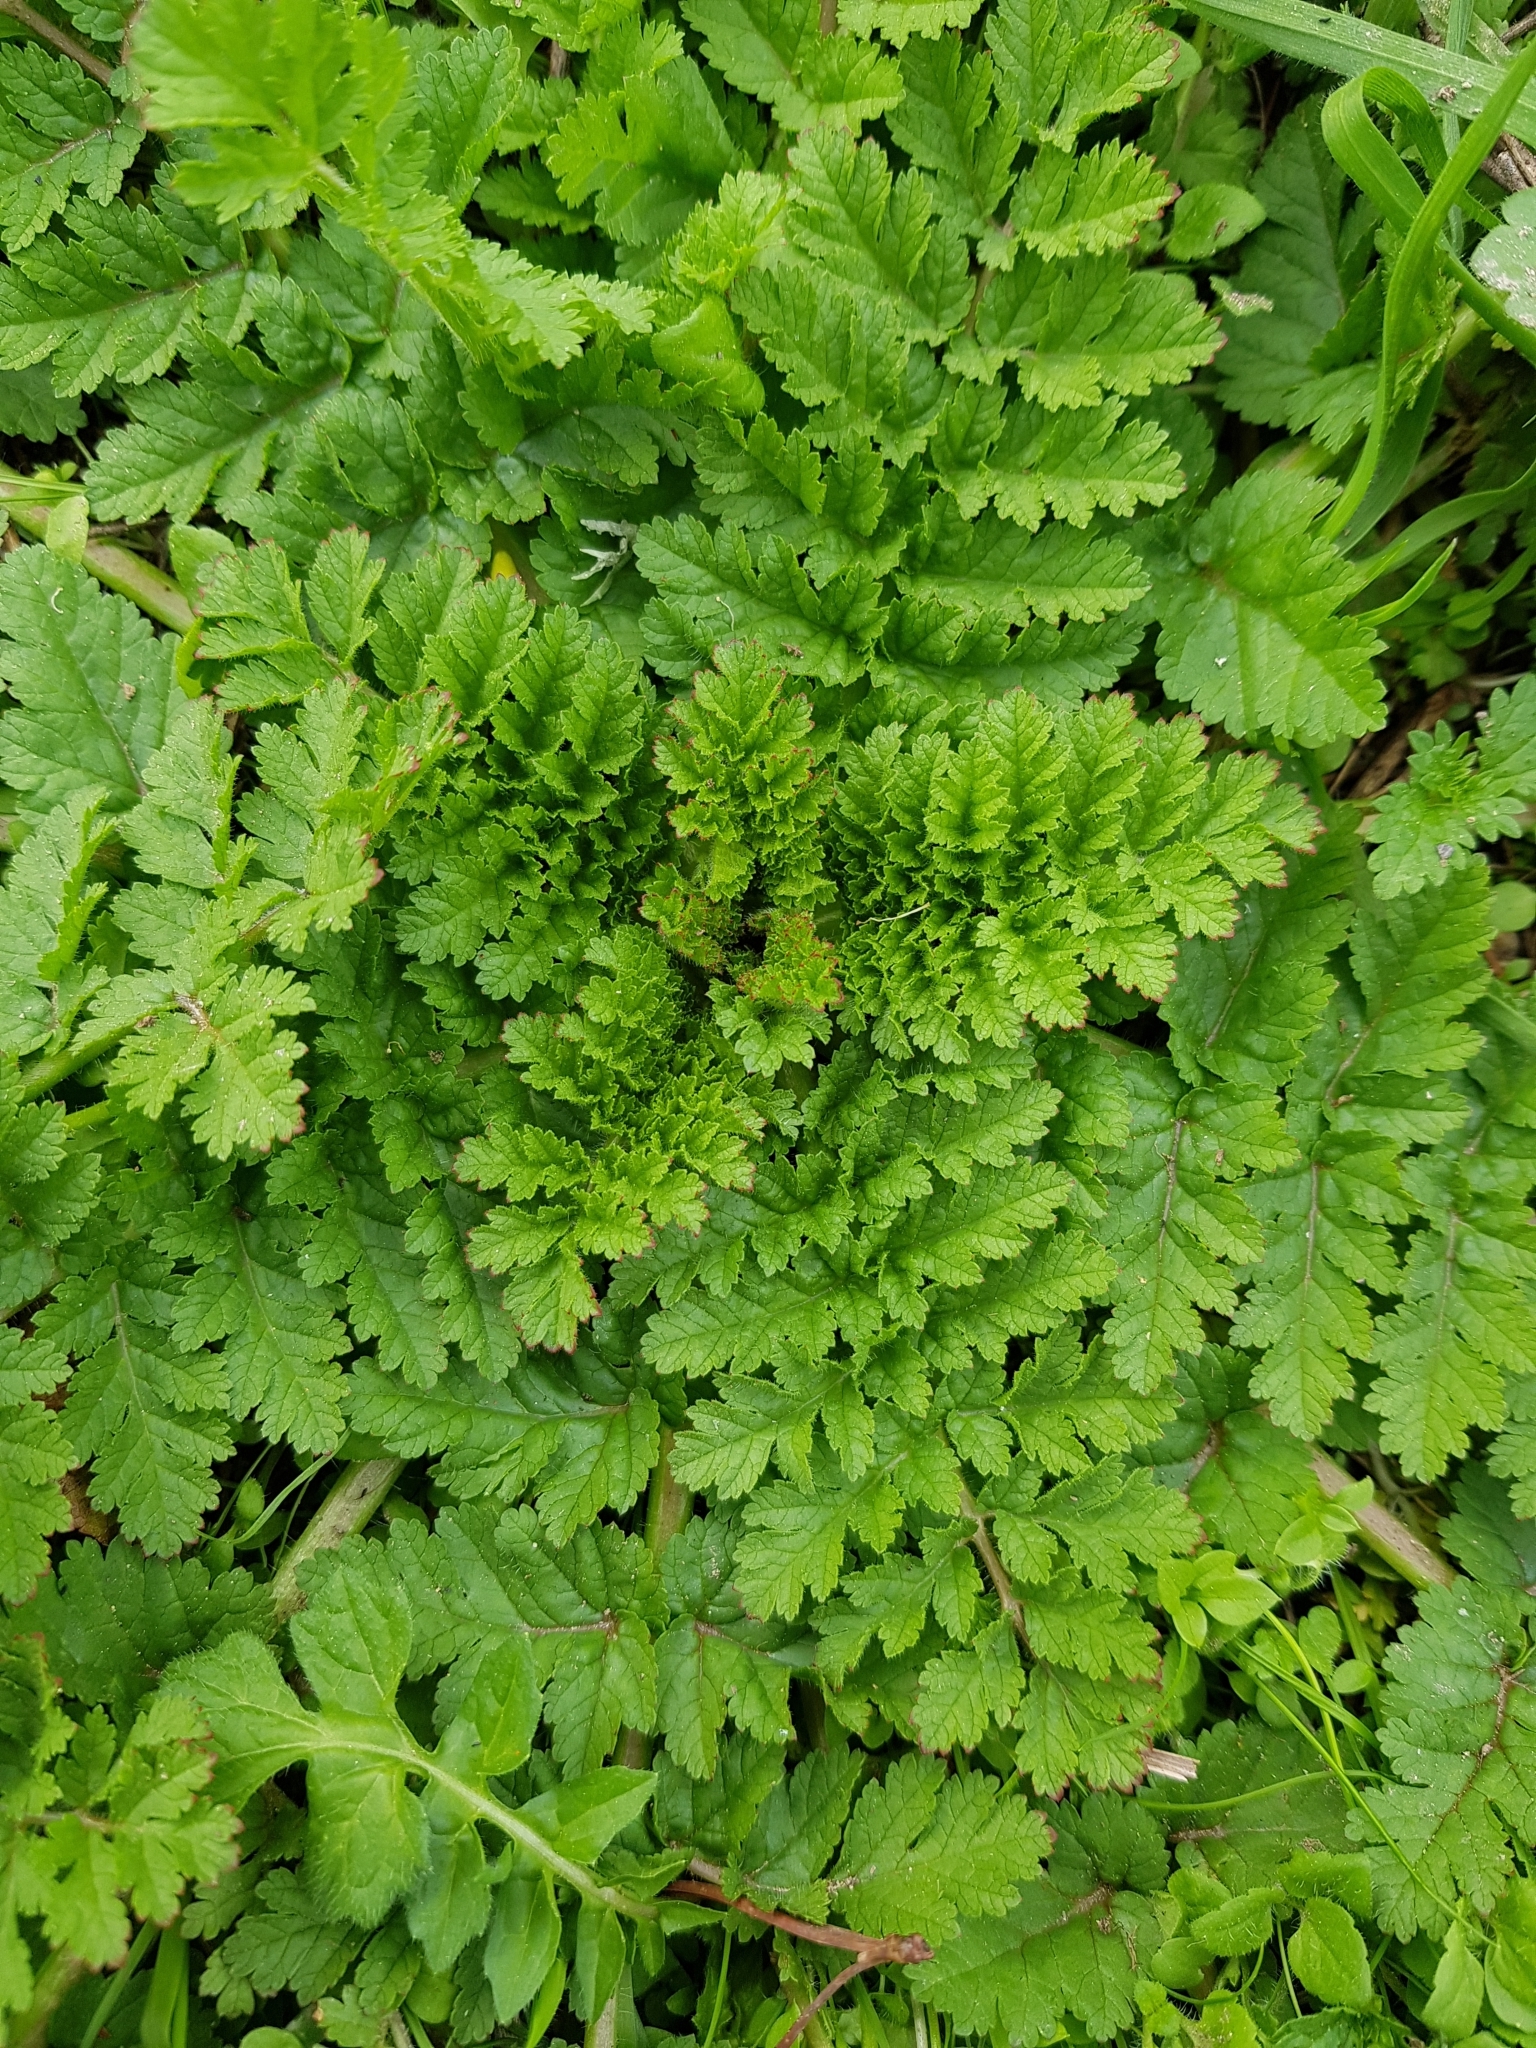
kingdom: Plantae
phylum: Tracheophyta
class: Magnoliopsida
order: Geraniales
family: Geraniaceae
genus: Erodium
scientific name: Erodium moschatum
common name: Musk stork's-bill
